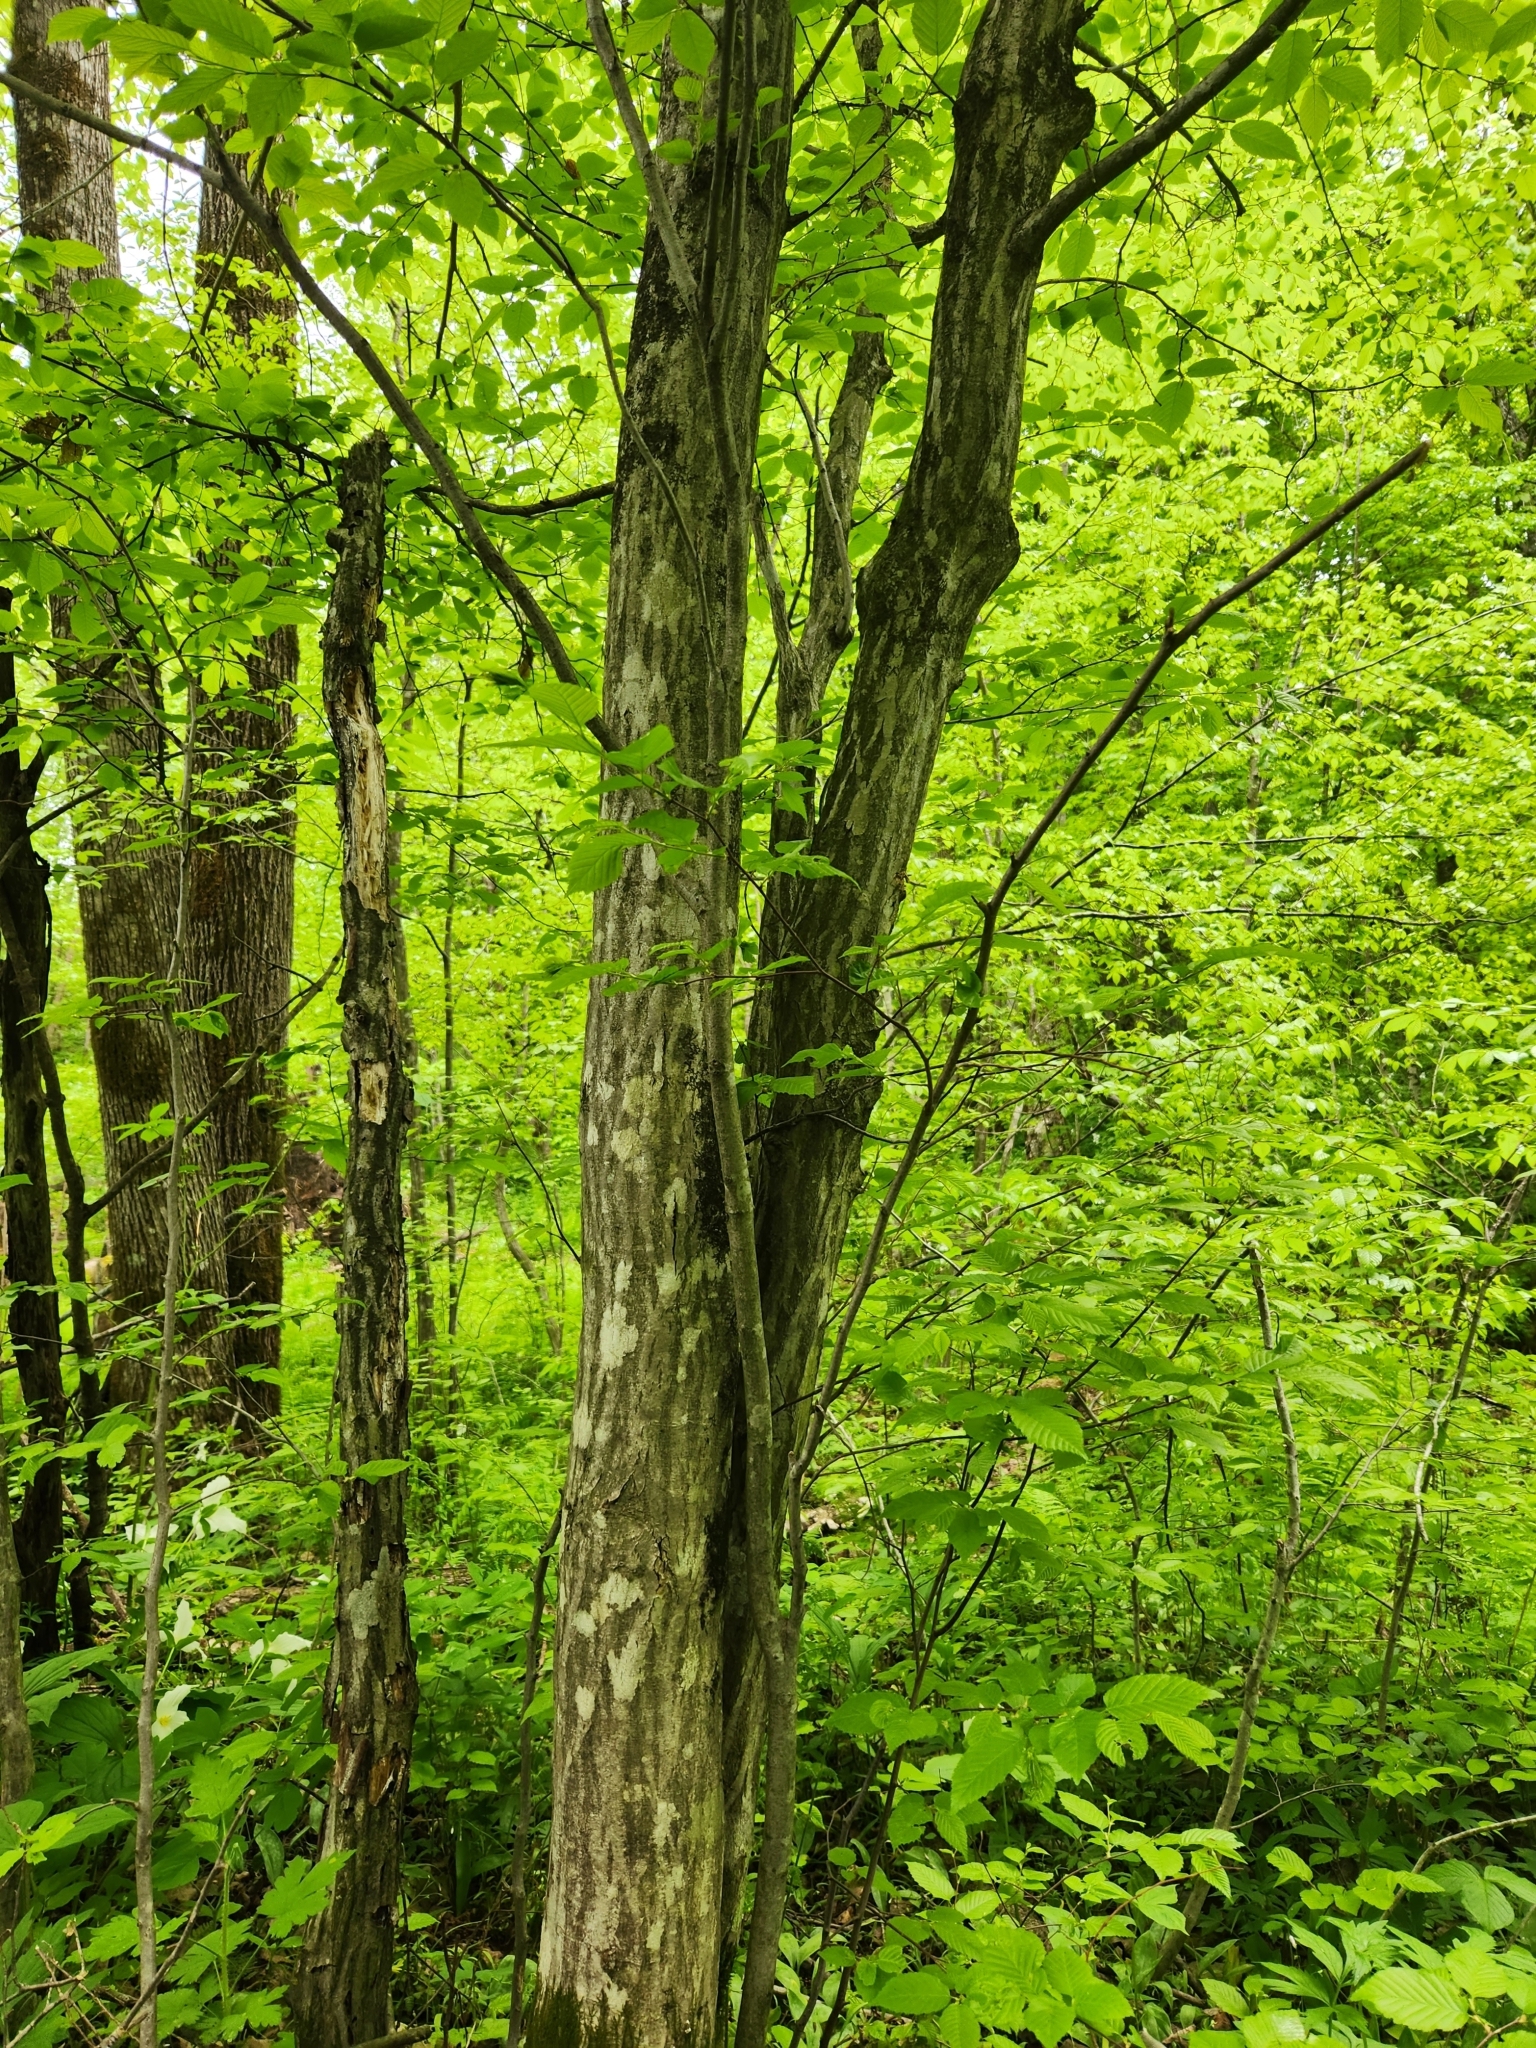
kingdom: Plantae
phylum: Tracheophyta
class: Magnoliopsida
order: Fagales
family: Betulaceae
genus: Carpinus
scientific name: Carpinus caroliniana
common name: American hornbeam
